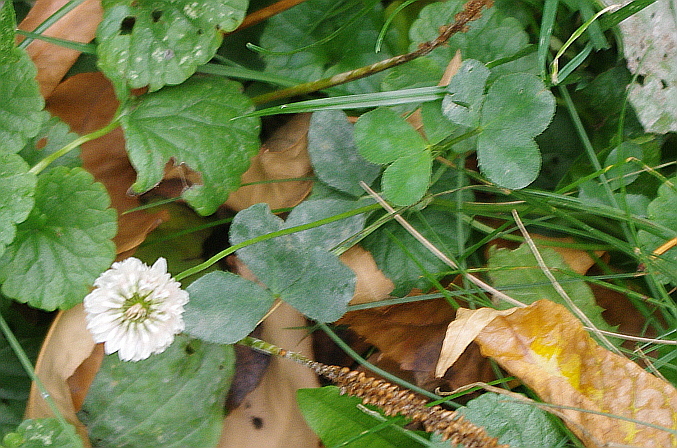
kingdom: Plantae
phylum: Tracheophyta
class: Magnoliopsida
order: Fabales
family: Fabaceae
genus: Trifolium
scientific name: Trifolium hybridum
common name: Alsike clover
